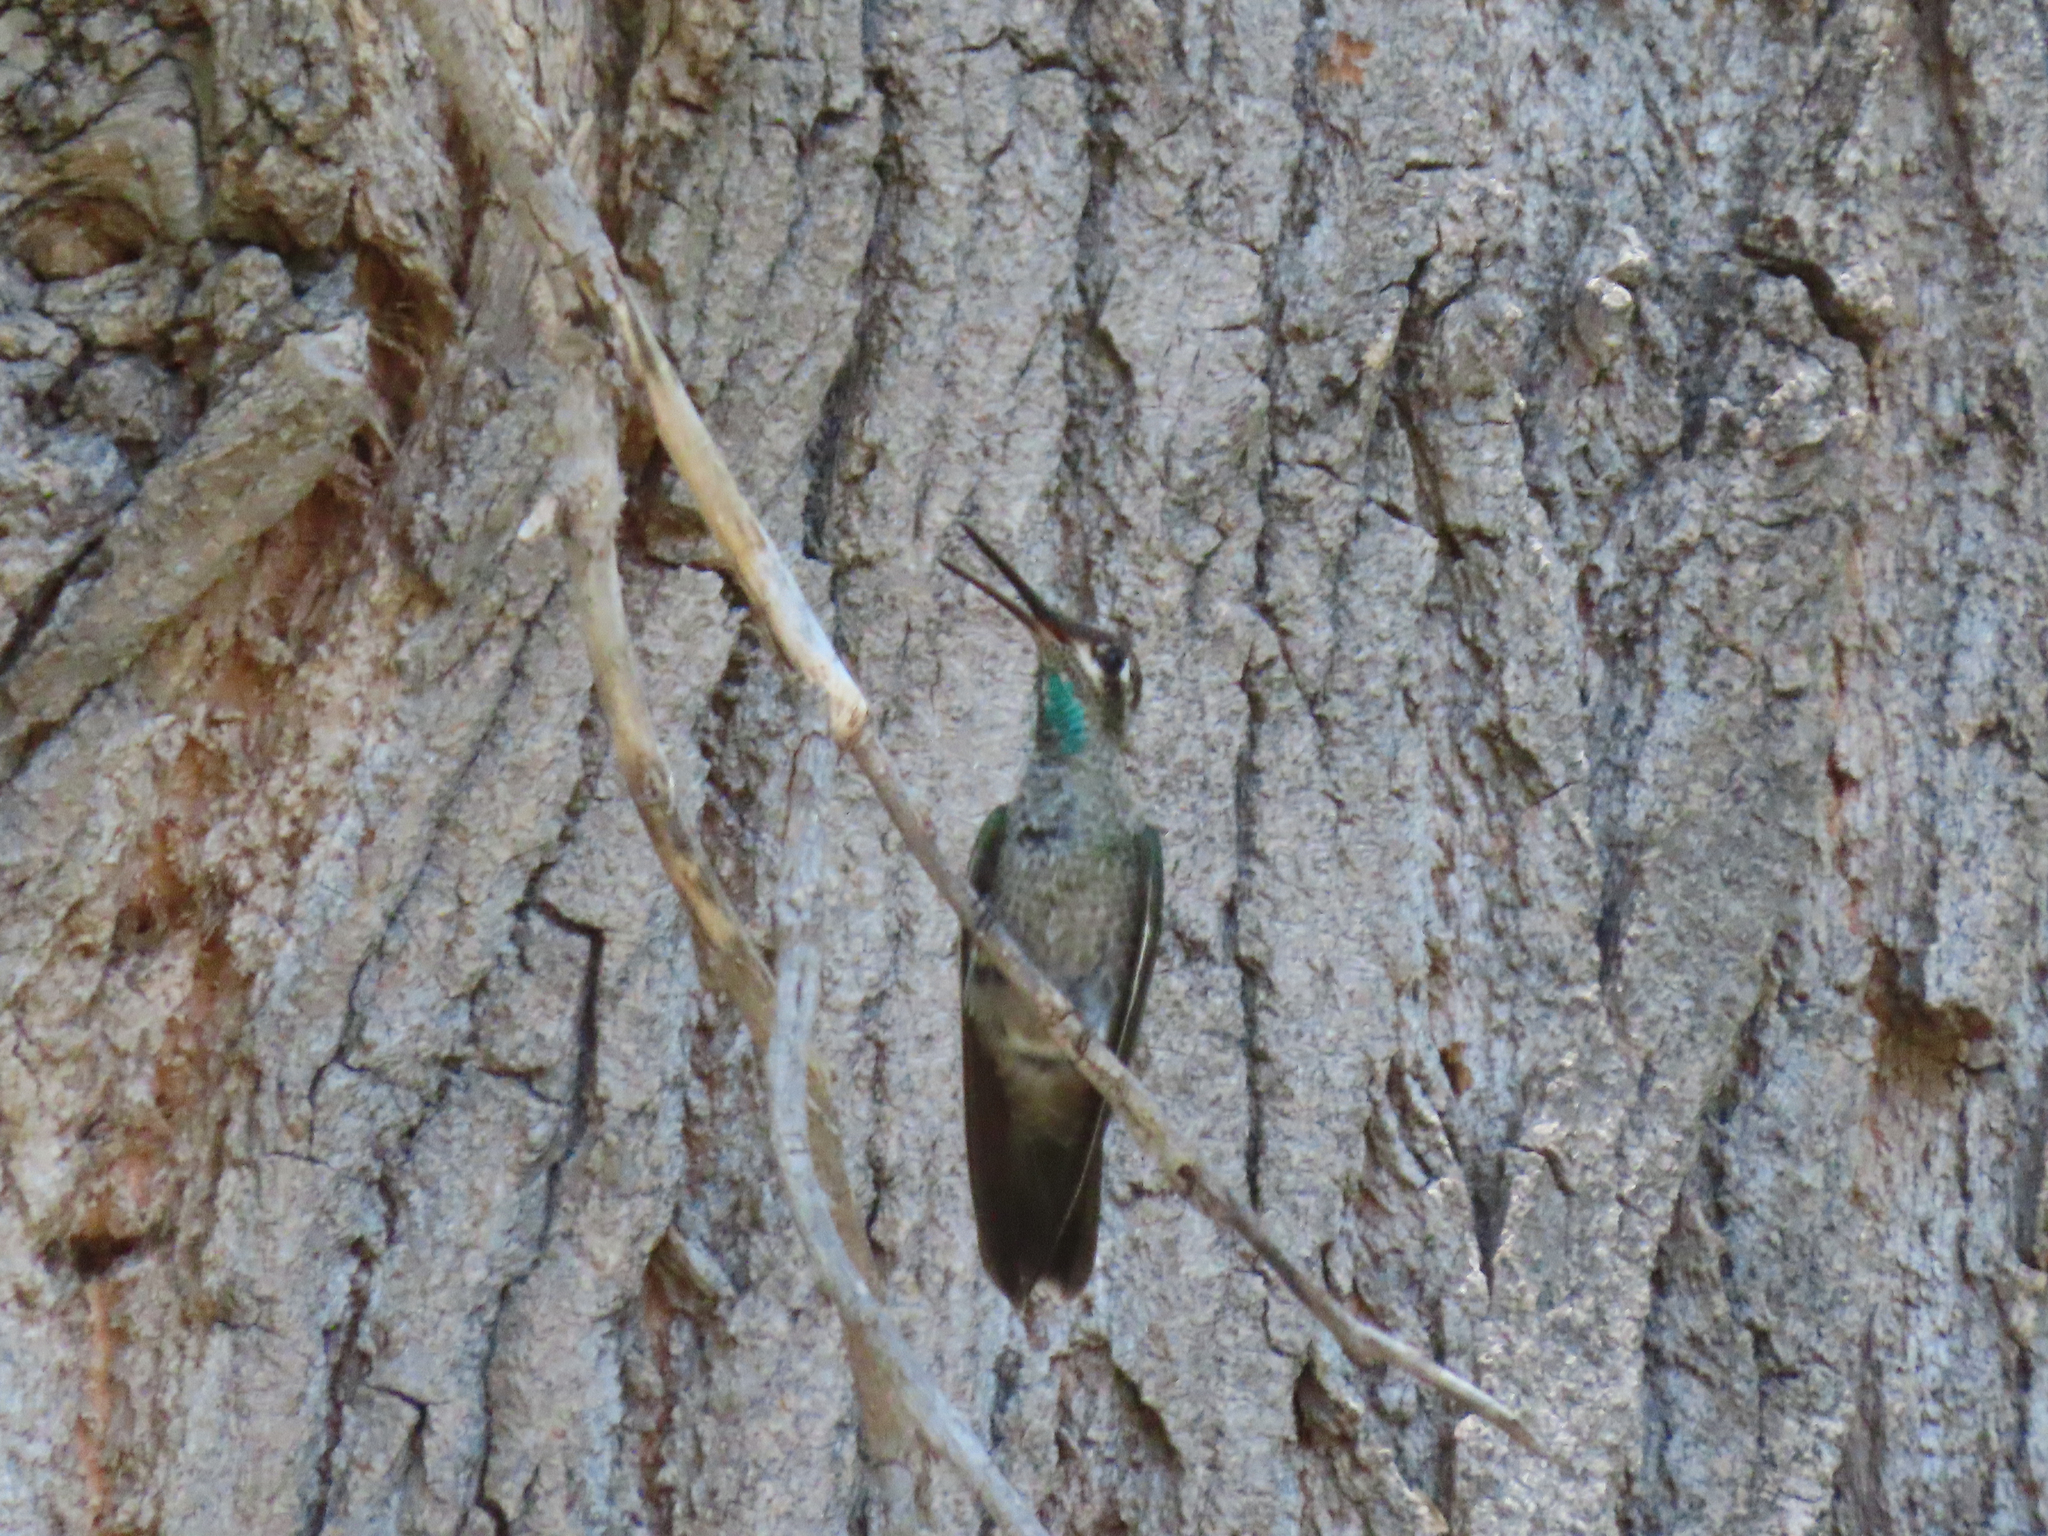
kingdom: Animalia
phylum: Chordata
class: Aves
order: Apodiformes
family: Trochilidae
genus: Eugenes
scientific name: Eugenes fulgens
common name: Magnificent hummingbird
